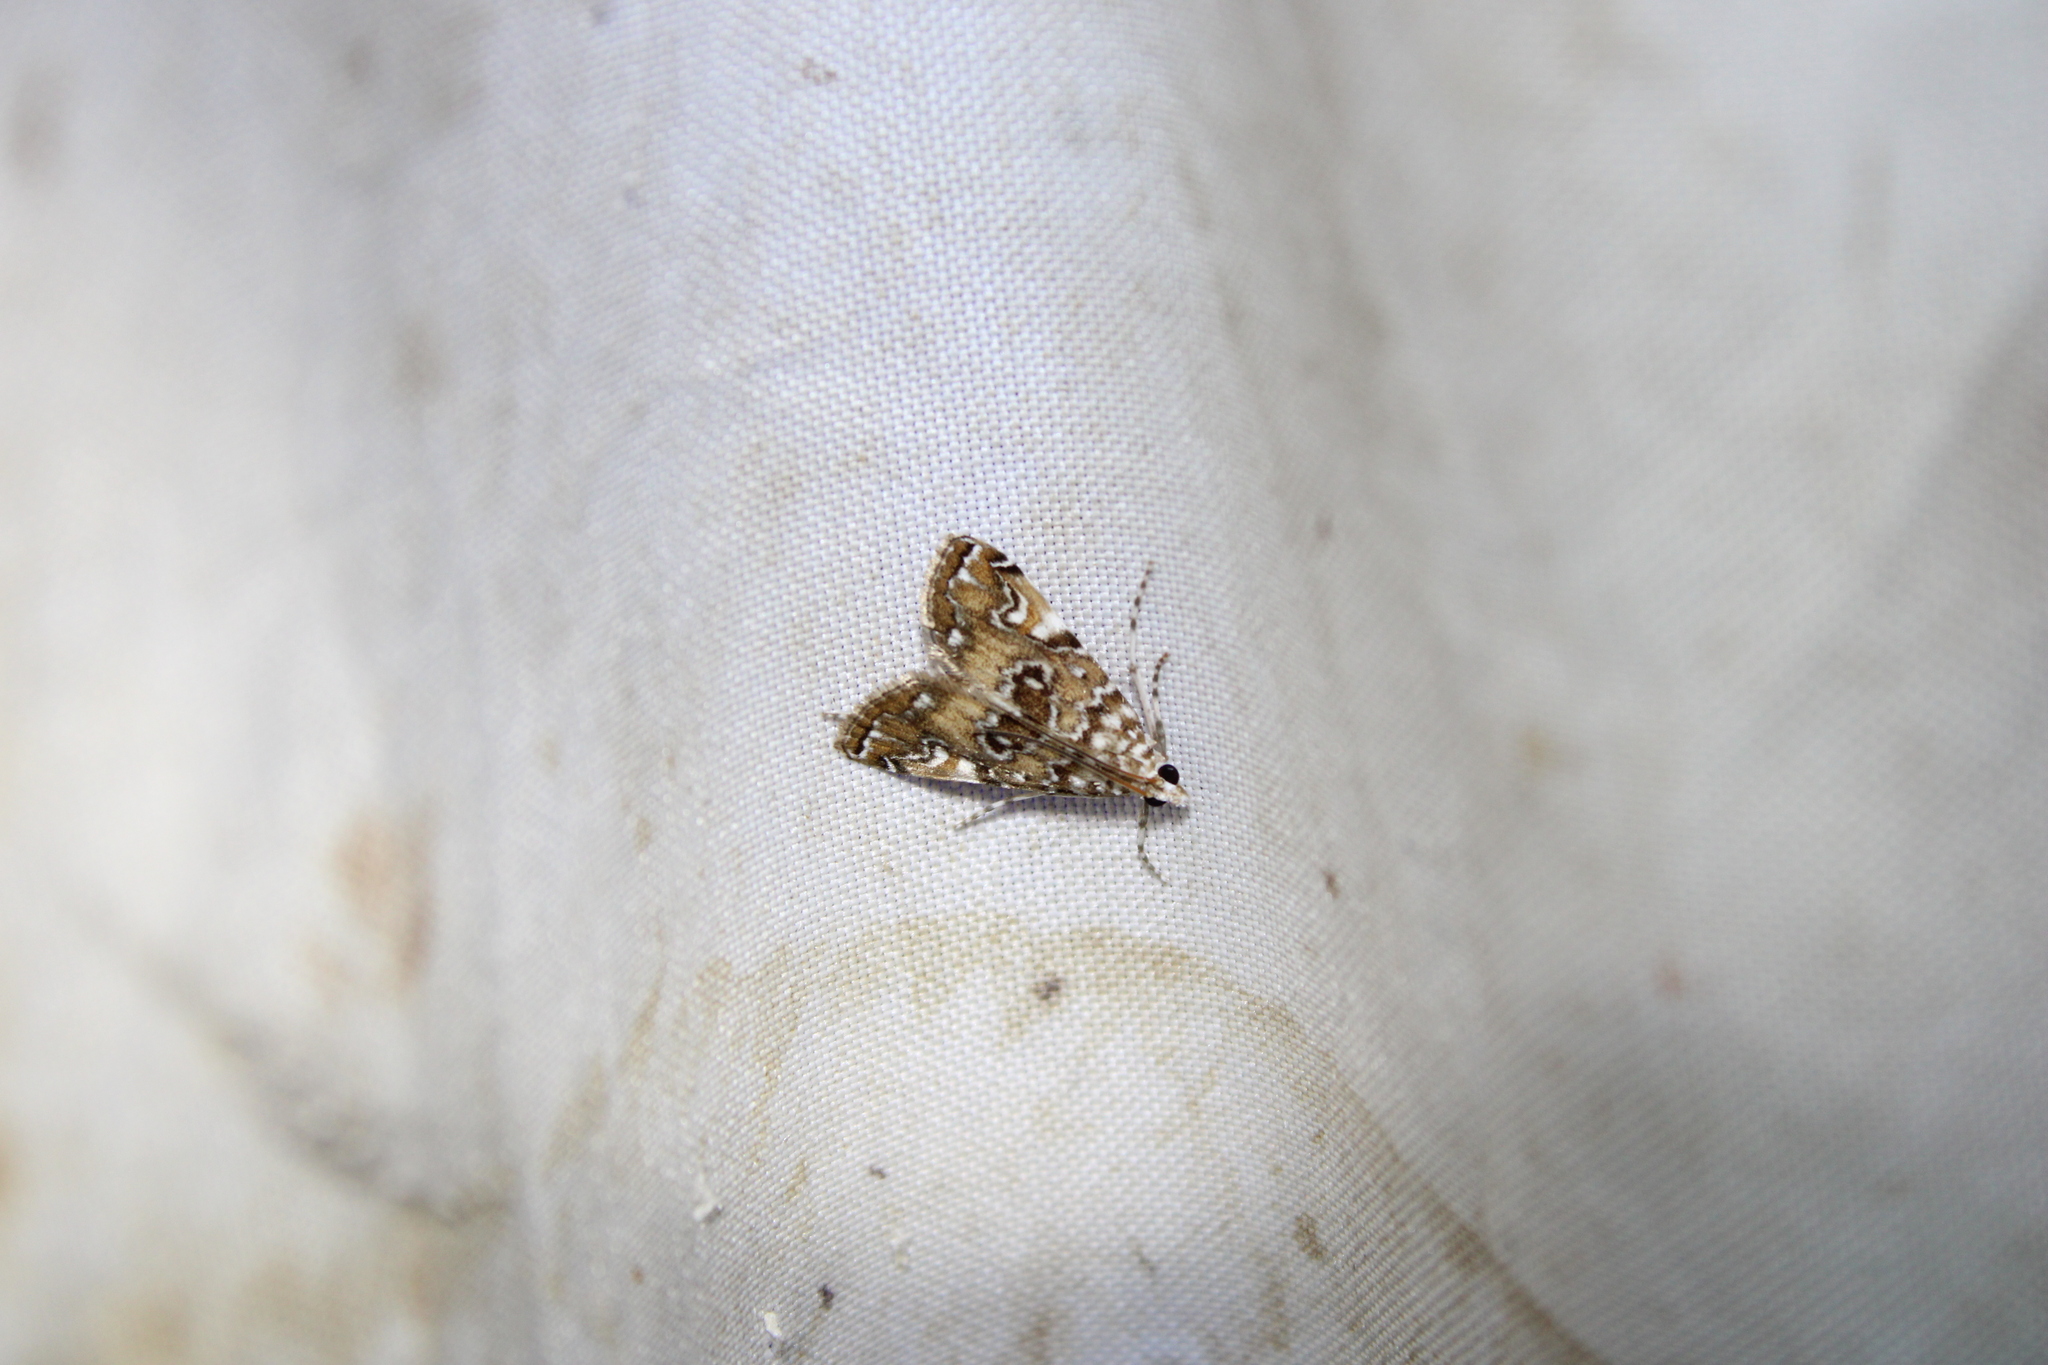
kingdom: Animalia
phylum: Arthropoda
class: Insecta
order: Lepidoptera
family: Crambidae
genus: Elophila
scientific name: Elophila gyralis
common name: Waterlily borer moth
